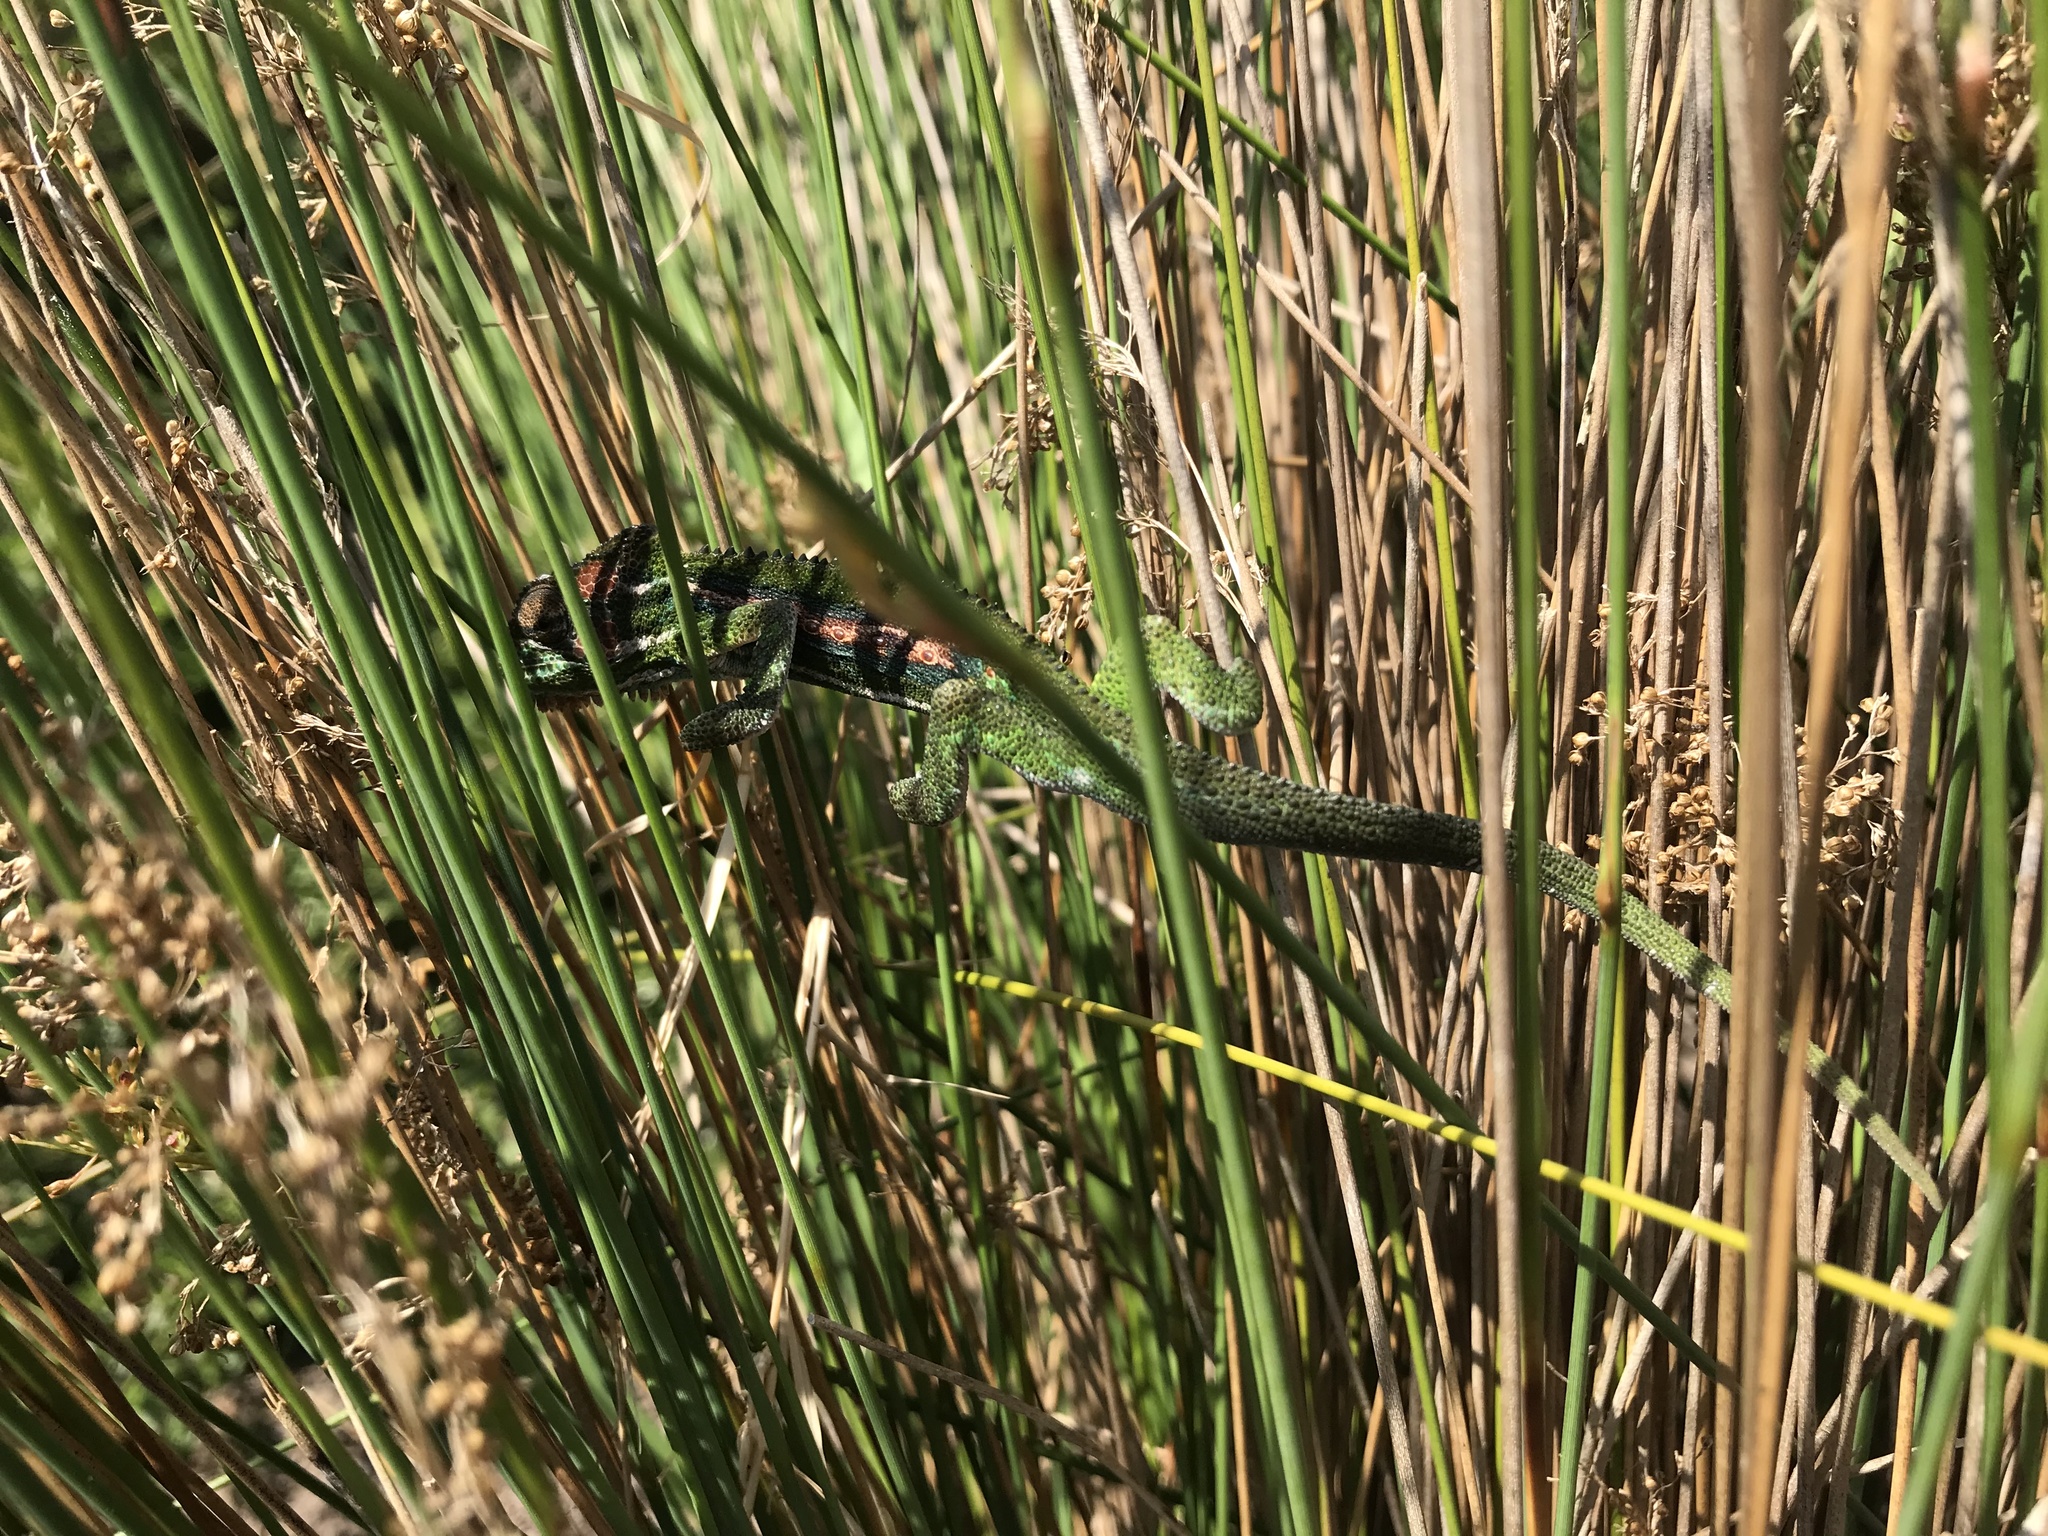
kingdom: Animalia
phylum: Chordata
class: Squamata
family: Chamaeleonidae
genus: Bradypodion
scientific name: Bradypodion pumilum
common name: Cape dwarf chameleon
